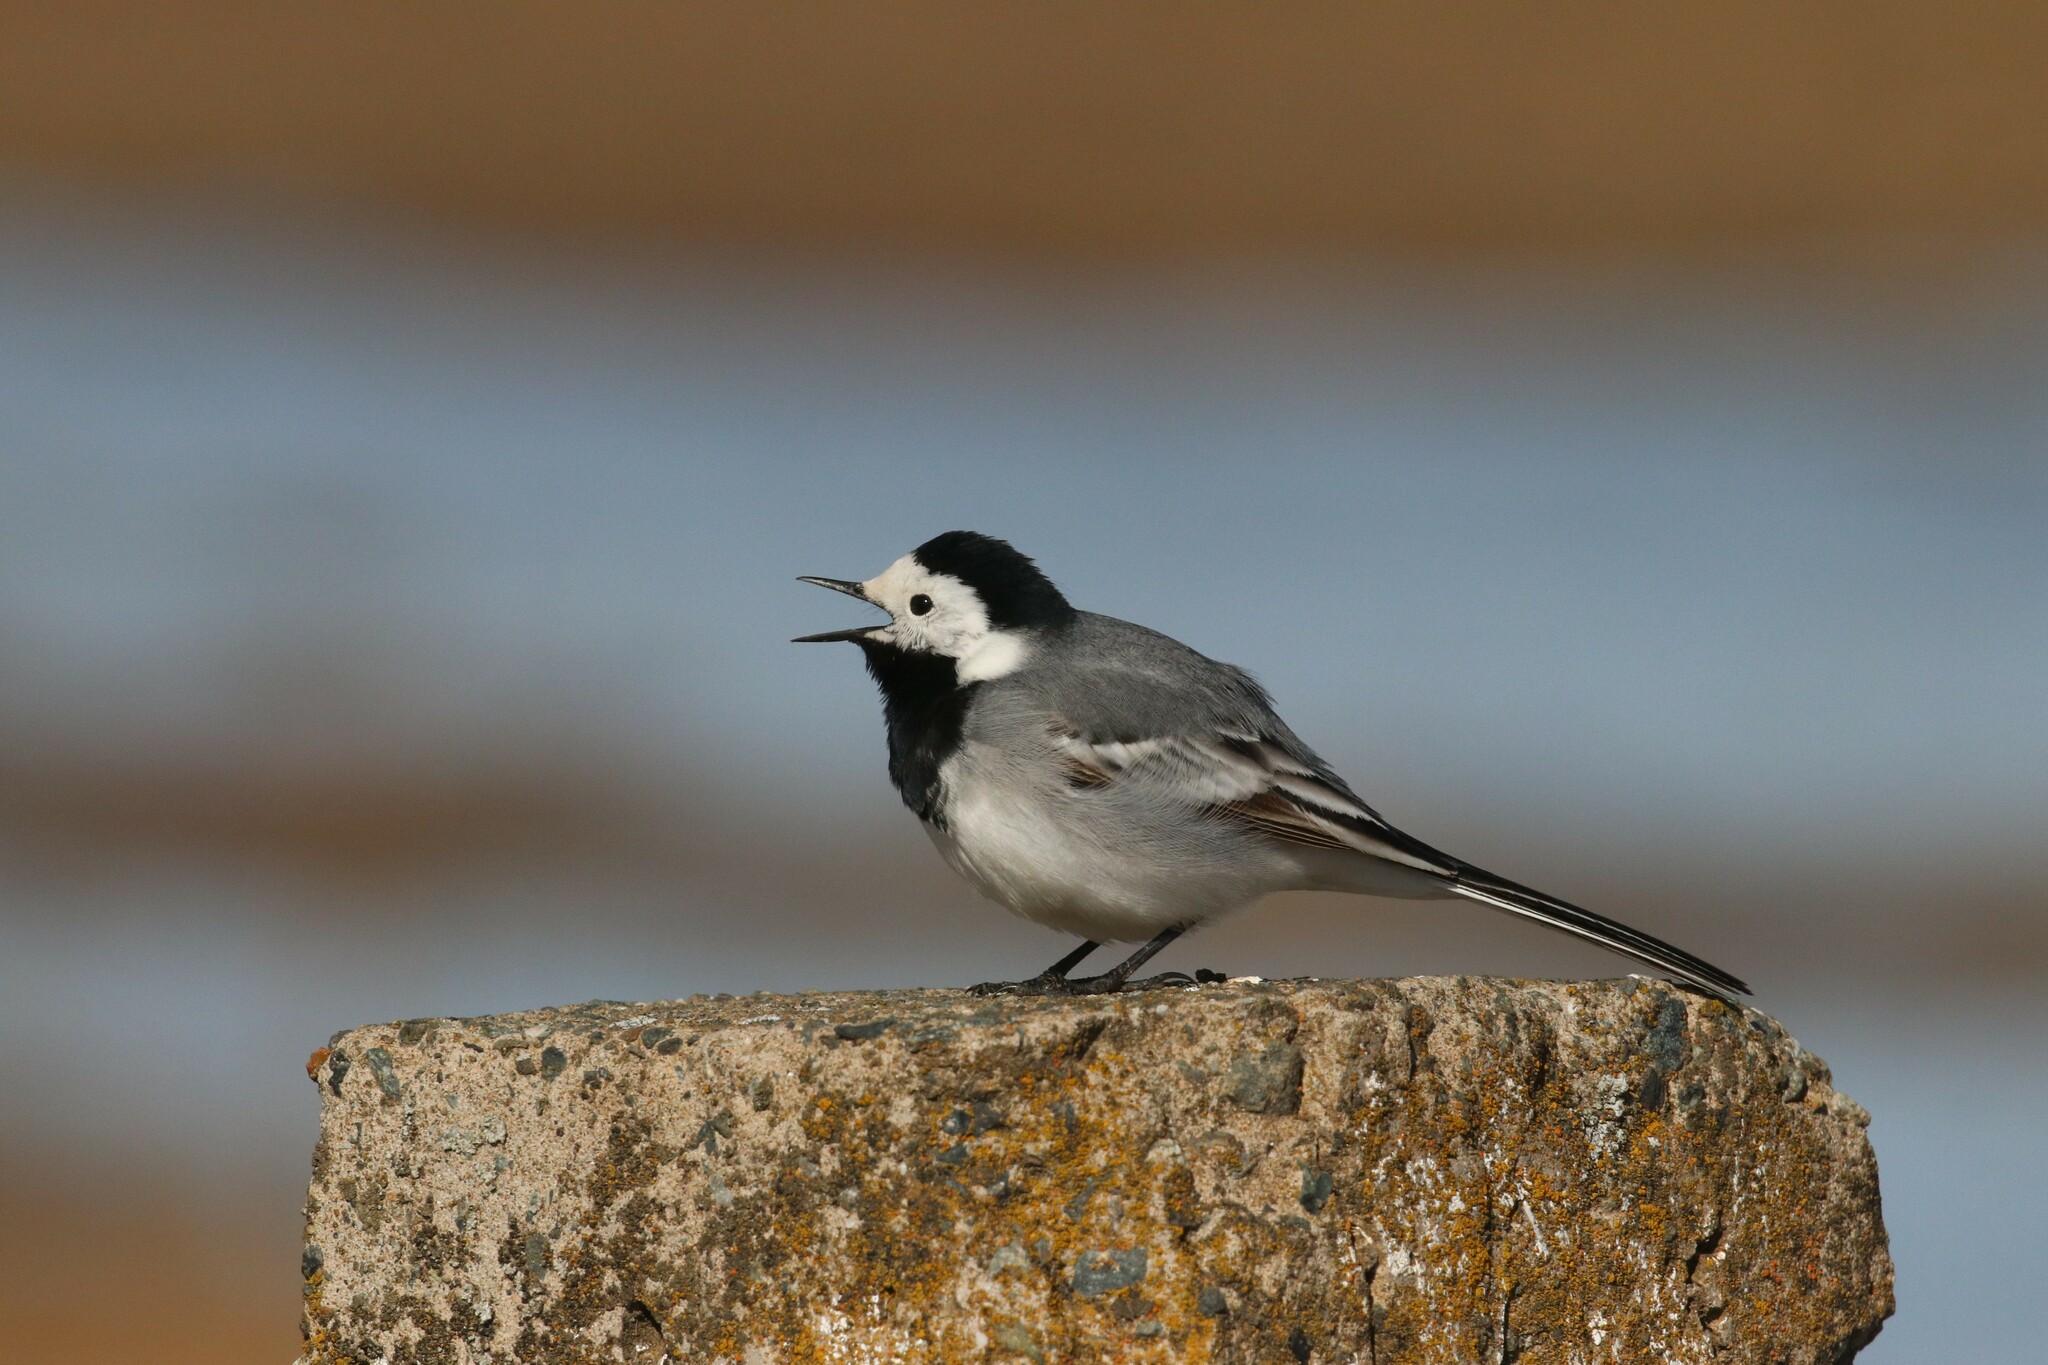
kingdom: Animalia
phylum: Chordata
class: Aves
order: Passeriformes
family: Motacillidae
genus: Motacilla
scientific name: Motacilla alba
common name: White wagtail
